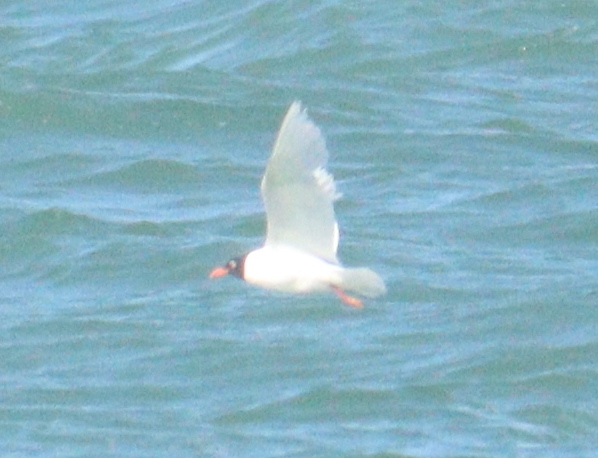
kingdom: Animalia
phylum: Chordata
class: Aves
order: Charadriiformes
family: Laridae
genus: Ichthyaetus
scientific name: Ichthyaetus melanocephalus
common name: Mediterranean gull
